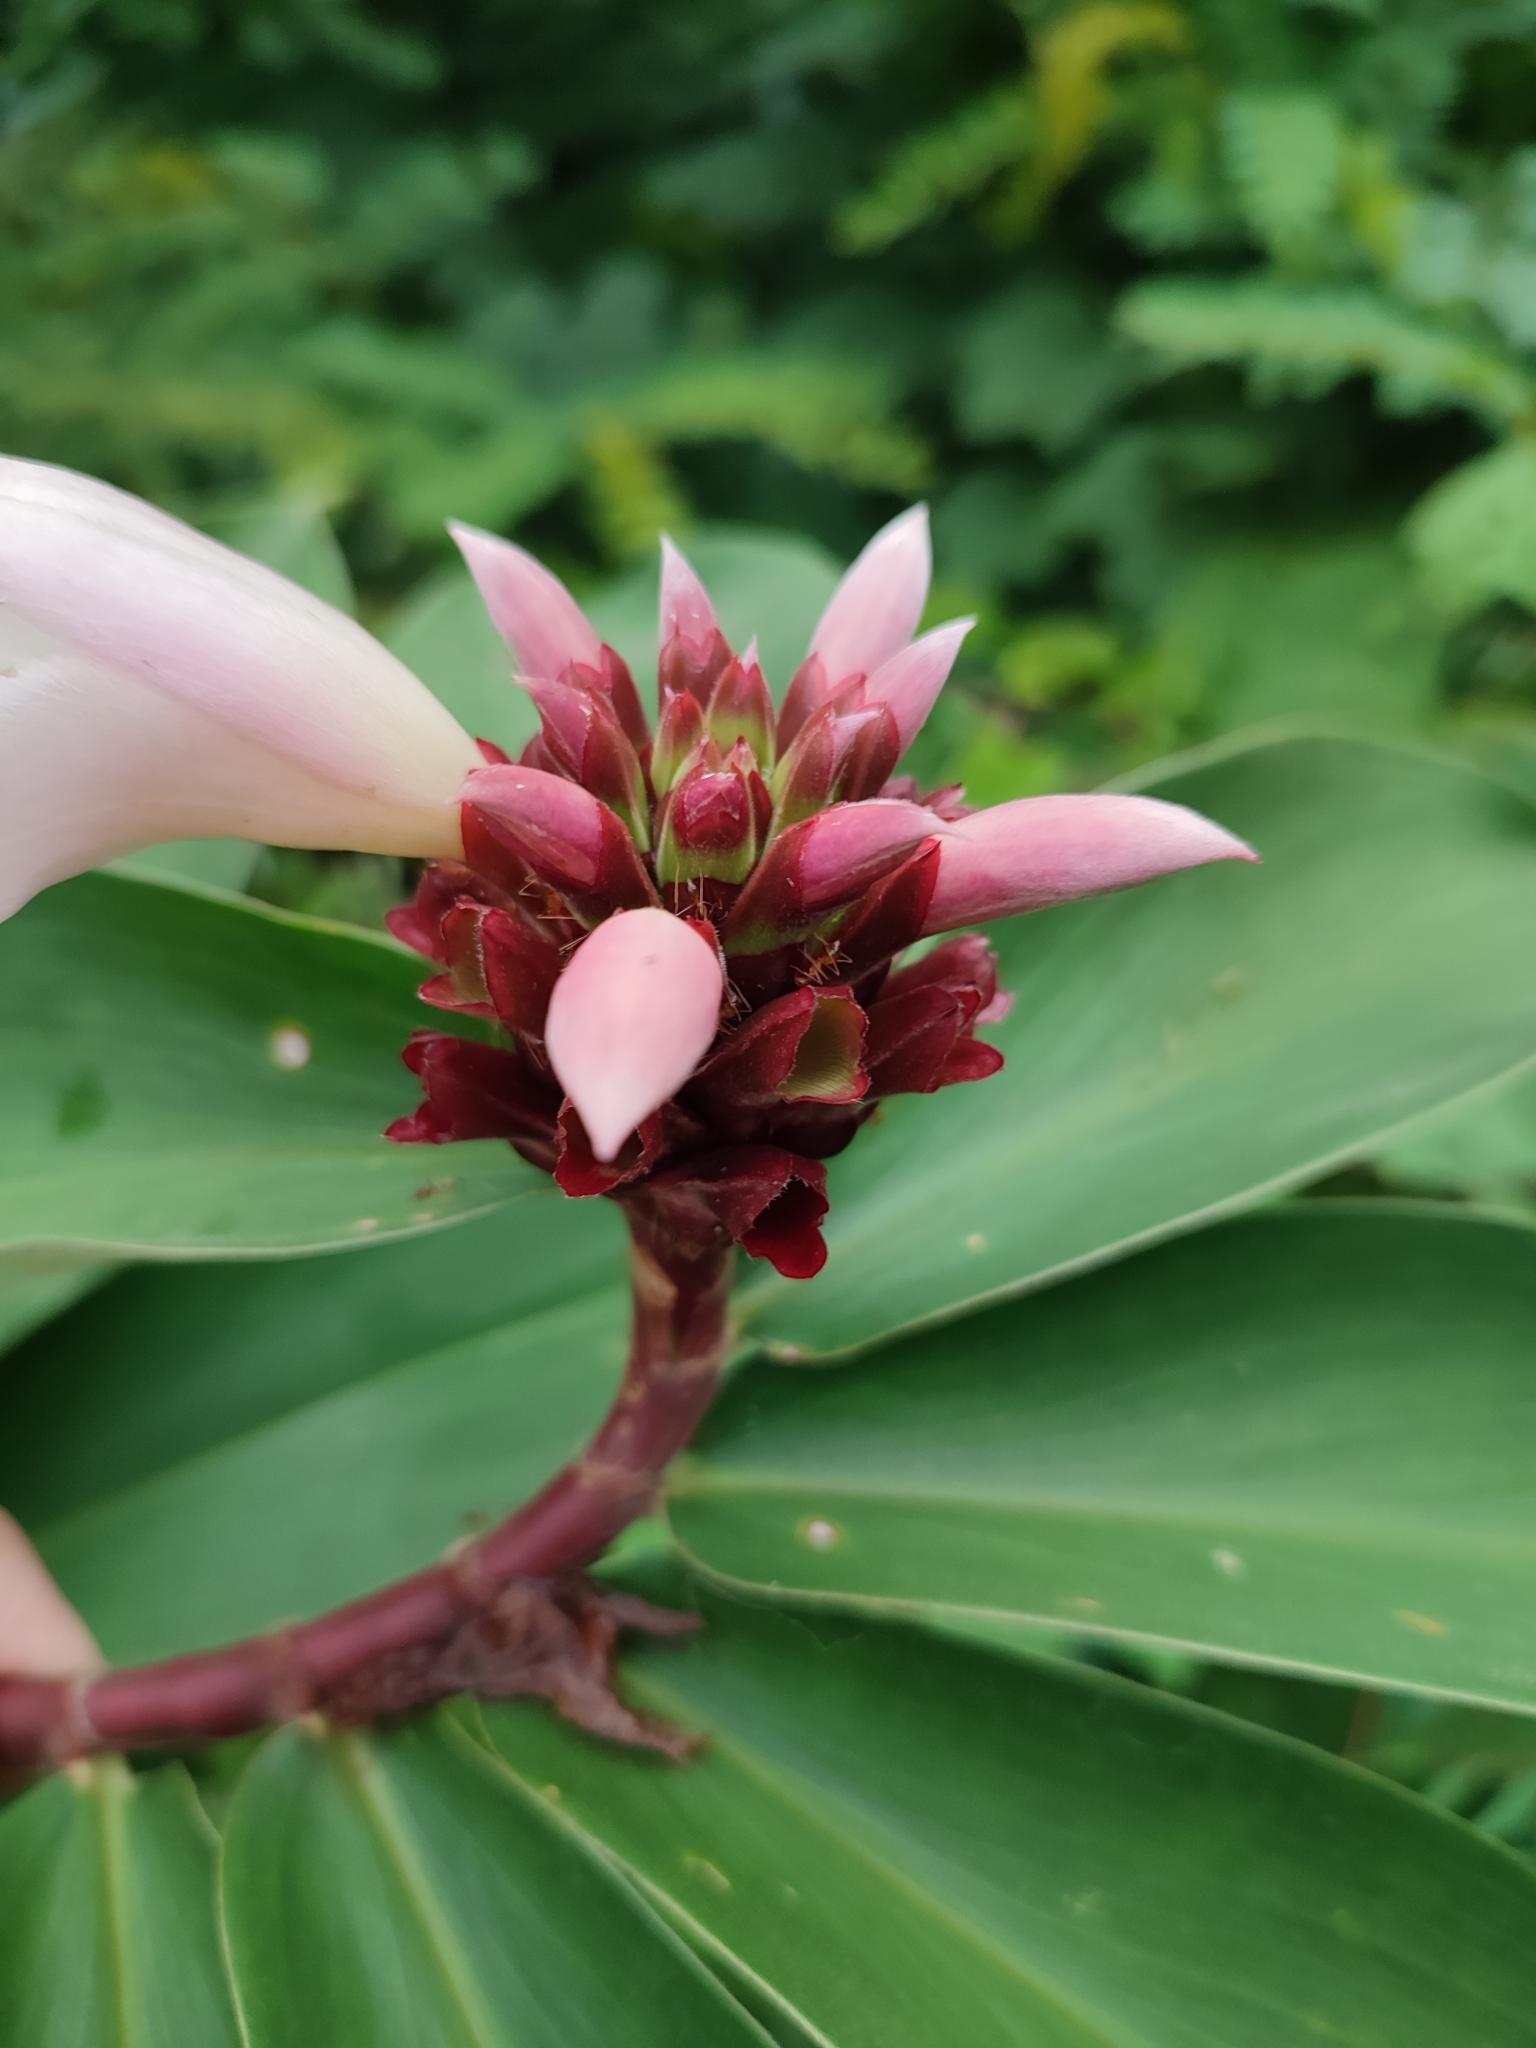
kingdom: Plantae
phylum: Tracheophyta
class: Liliopsida
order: Zingiberales
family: Costaceae
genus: Hellenia
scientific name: Hellenia speciosa
